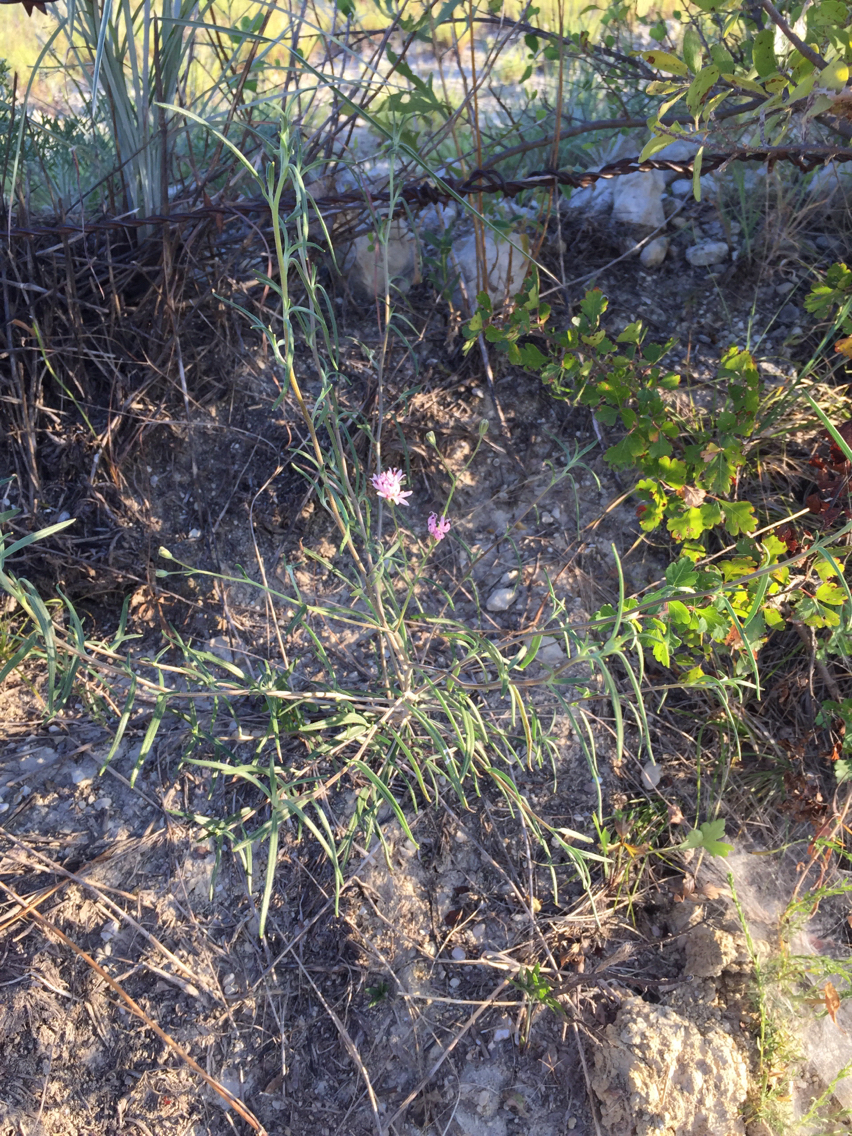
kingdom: Plantae
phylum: Tracheophyta
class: Magnoliopsida
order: Asterales
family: Asteraceae
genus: Palafoxia
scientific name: Palafoxia callosa
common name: Small palafox
